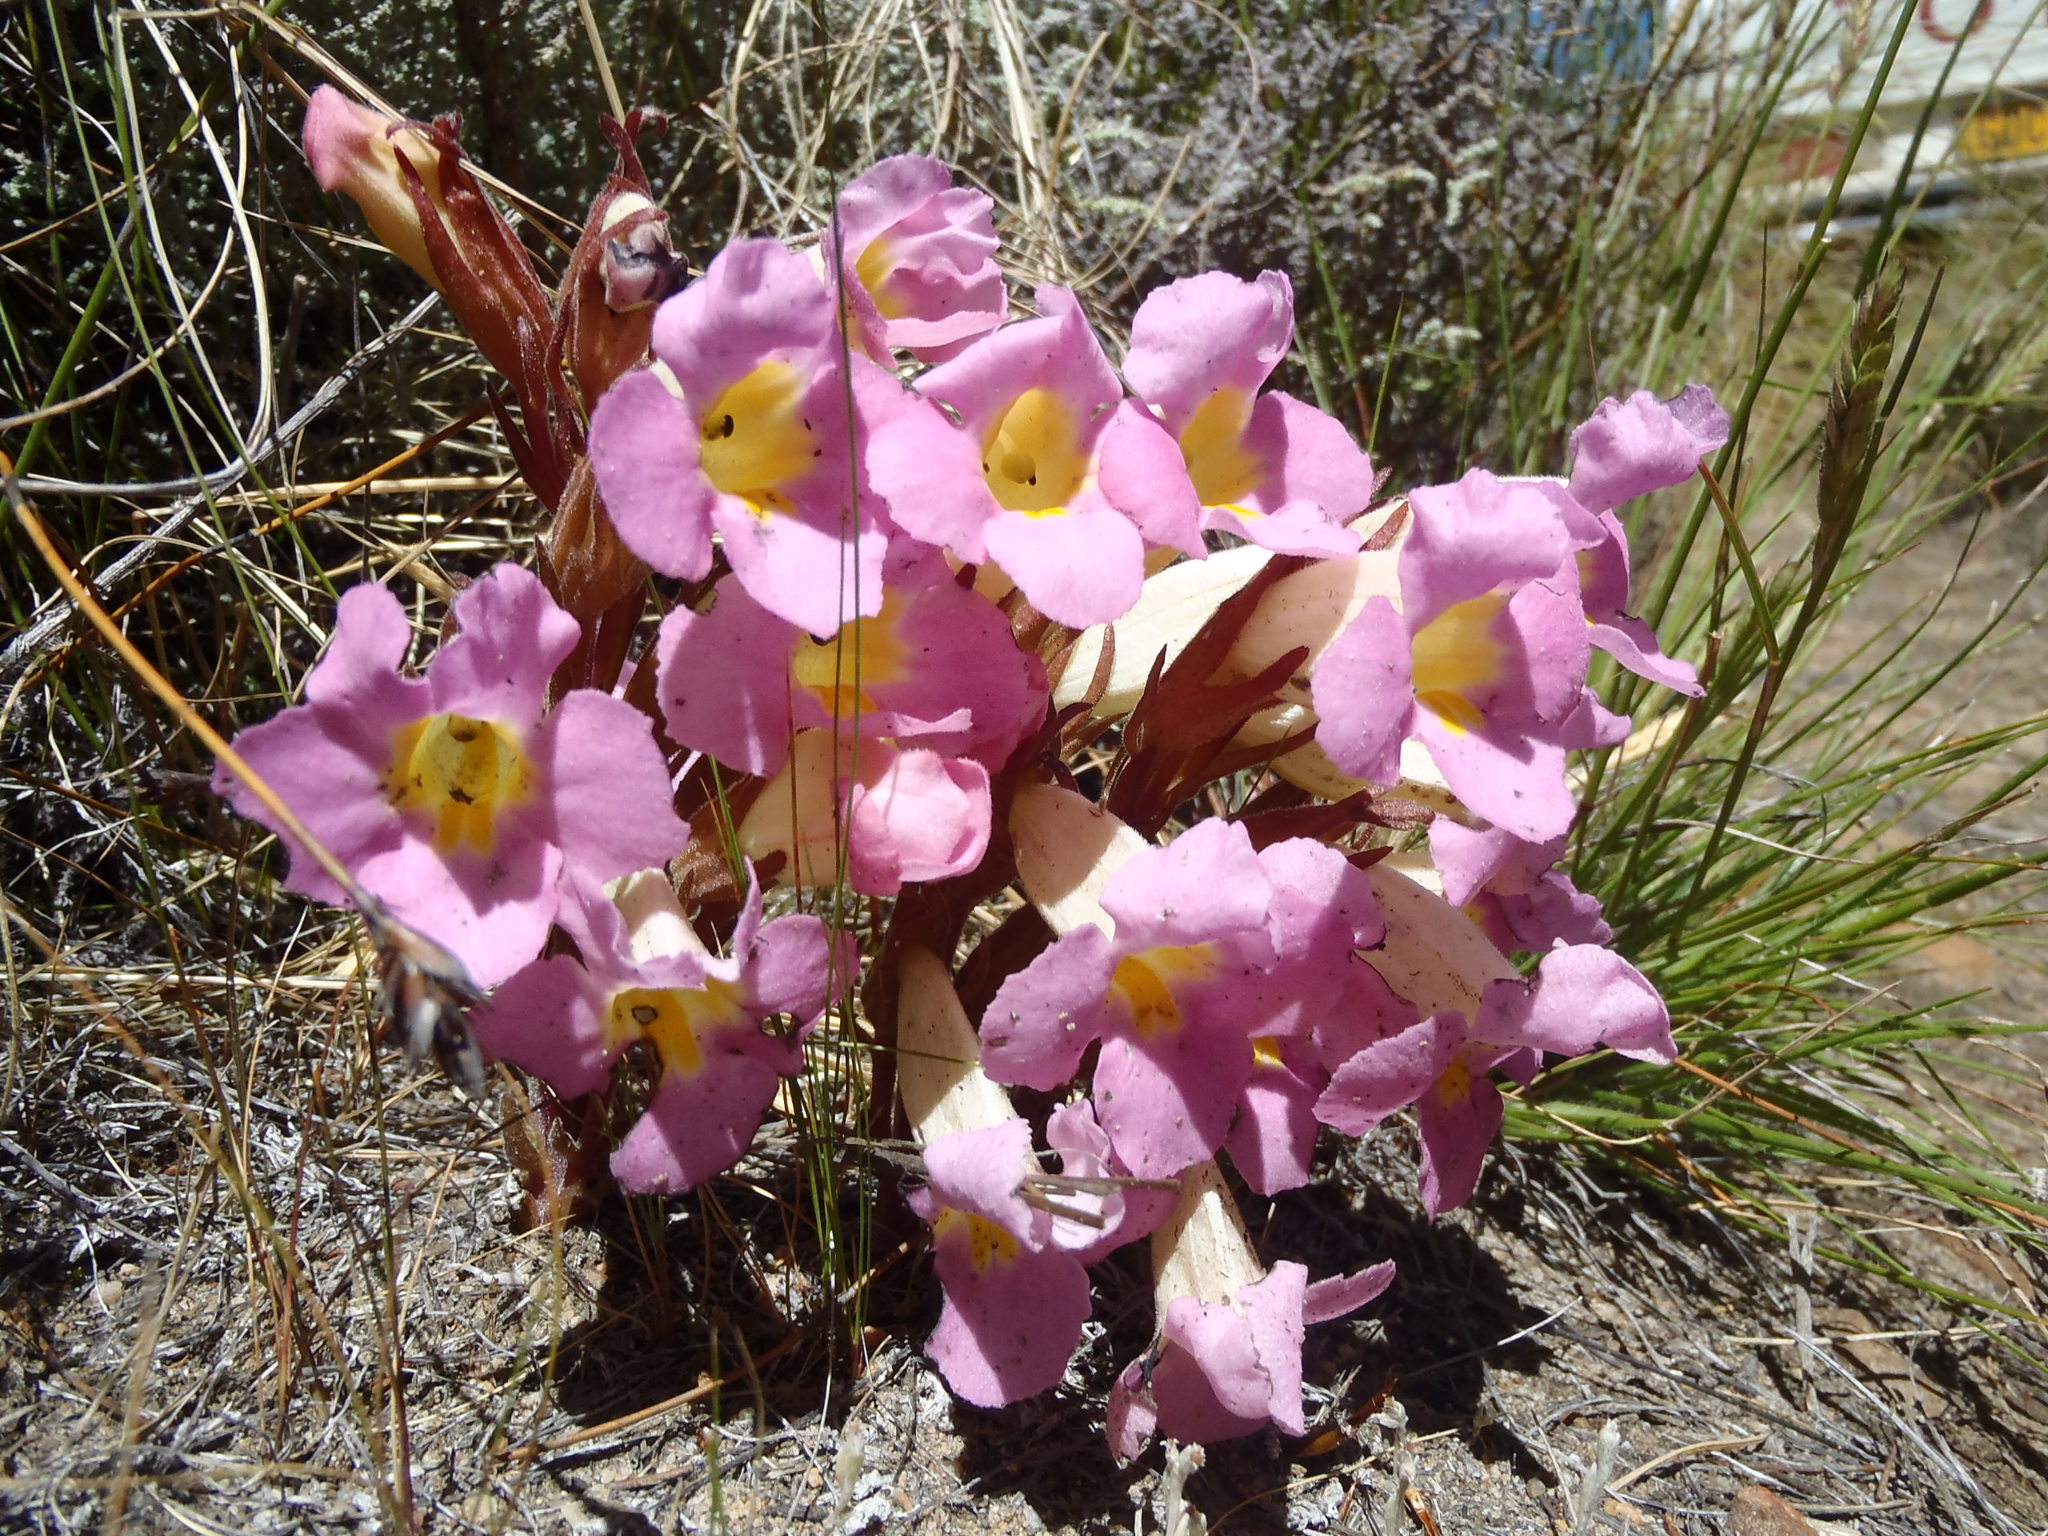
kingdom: Plantae
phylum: Tracheophyta
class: Magnoliopsida
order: Lamiales
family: Orobanchaceae
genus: Harveya
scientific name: Harveya purpurea
